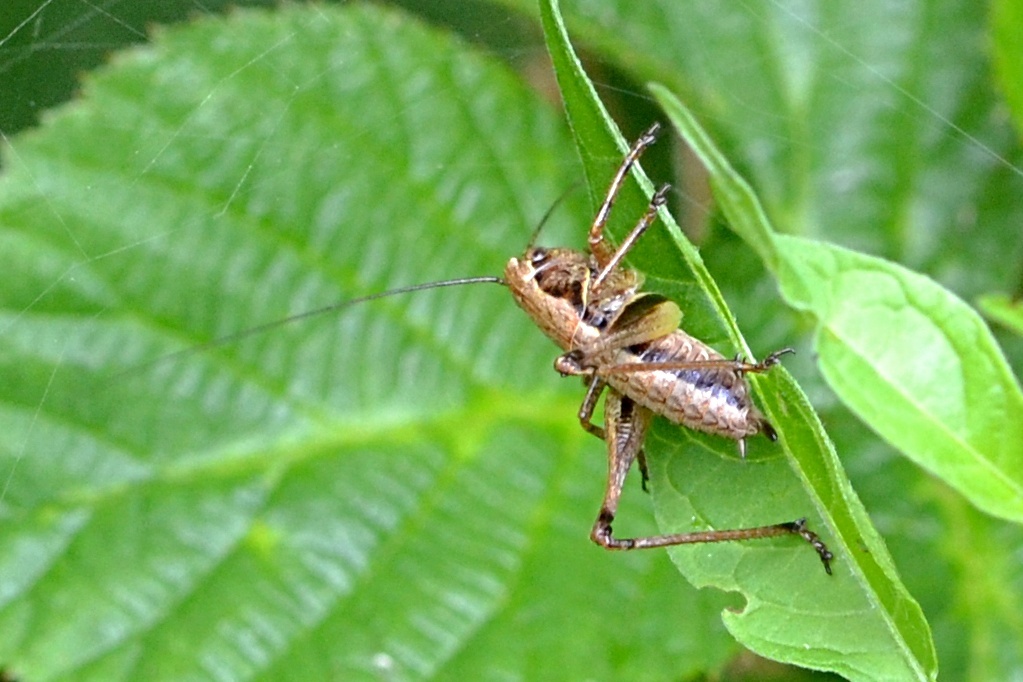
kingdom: Animalia
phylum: Arthropoda
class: Insecta
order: Orthoptera
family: Tettigoniidae
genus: Pholidoptera
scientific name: Pholidoptera griseoaptera
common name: Dark bush-cricket
